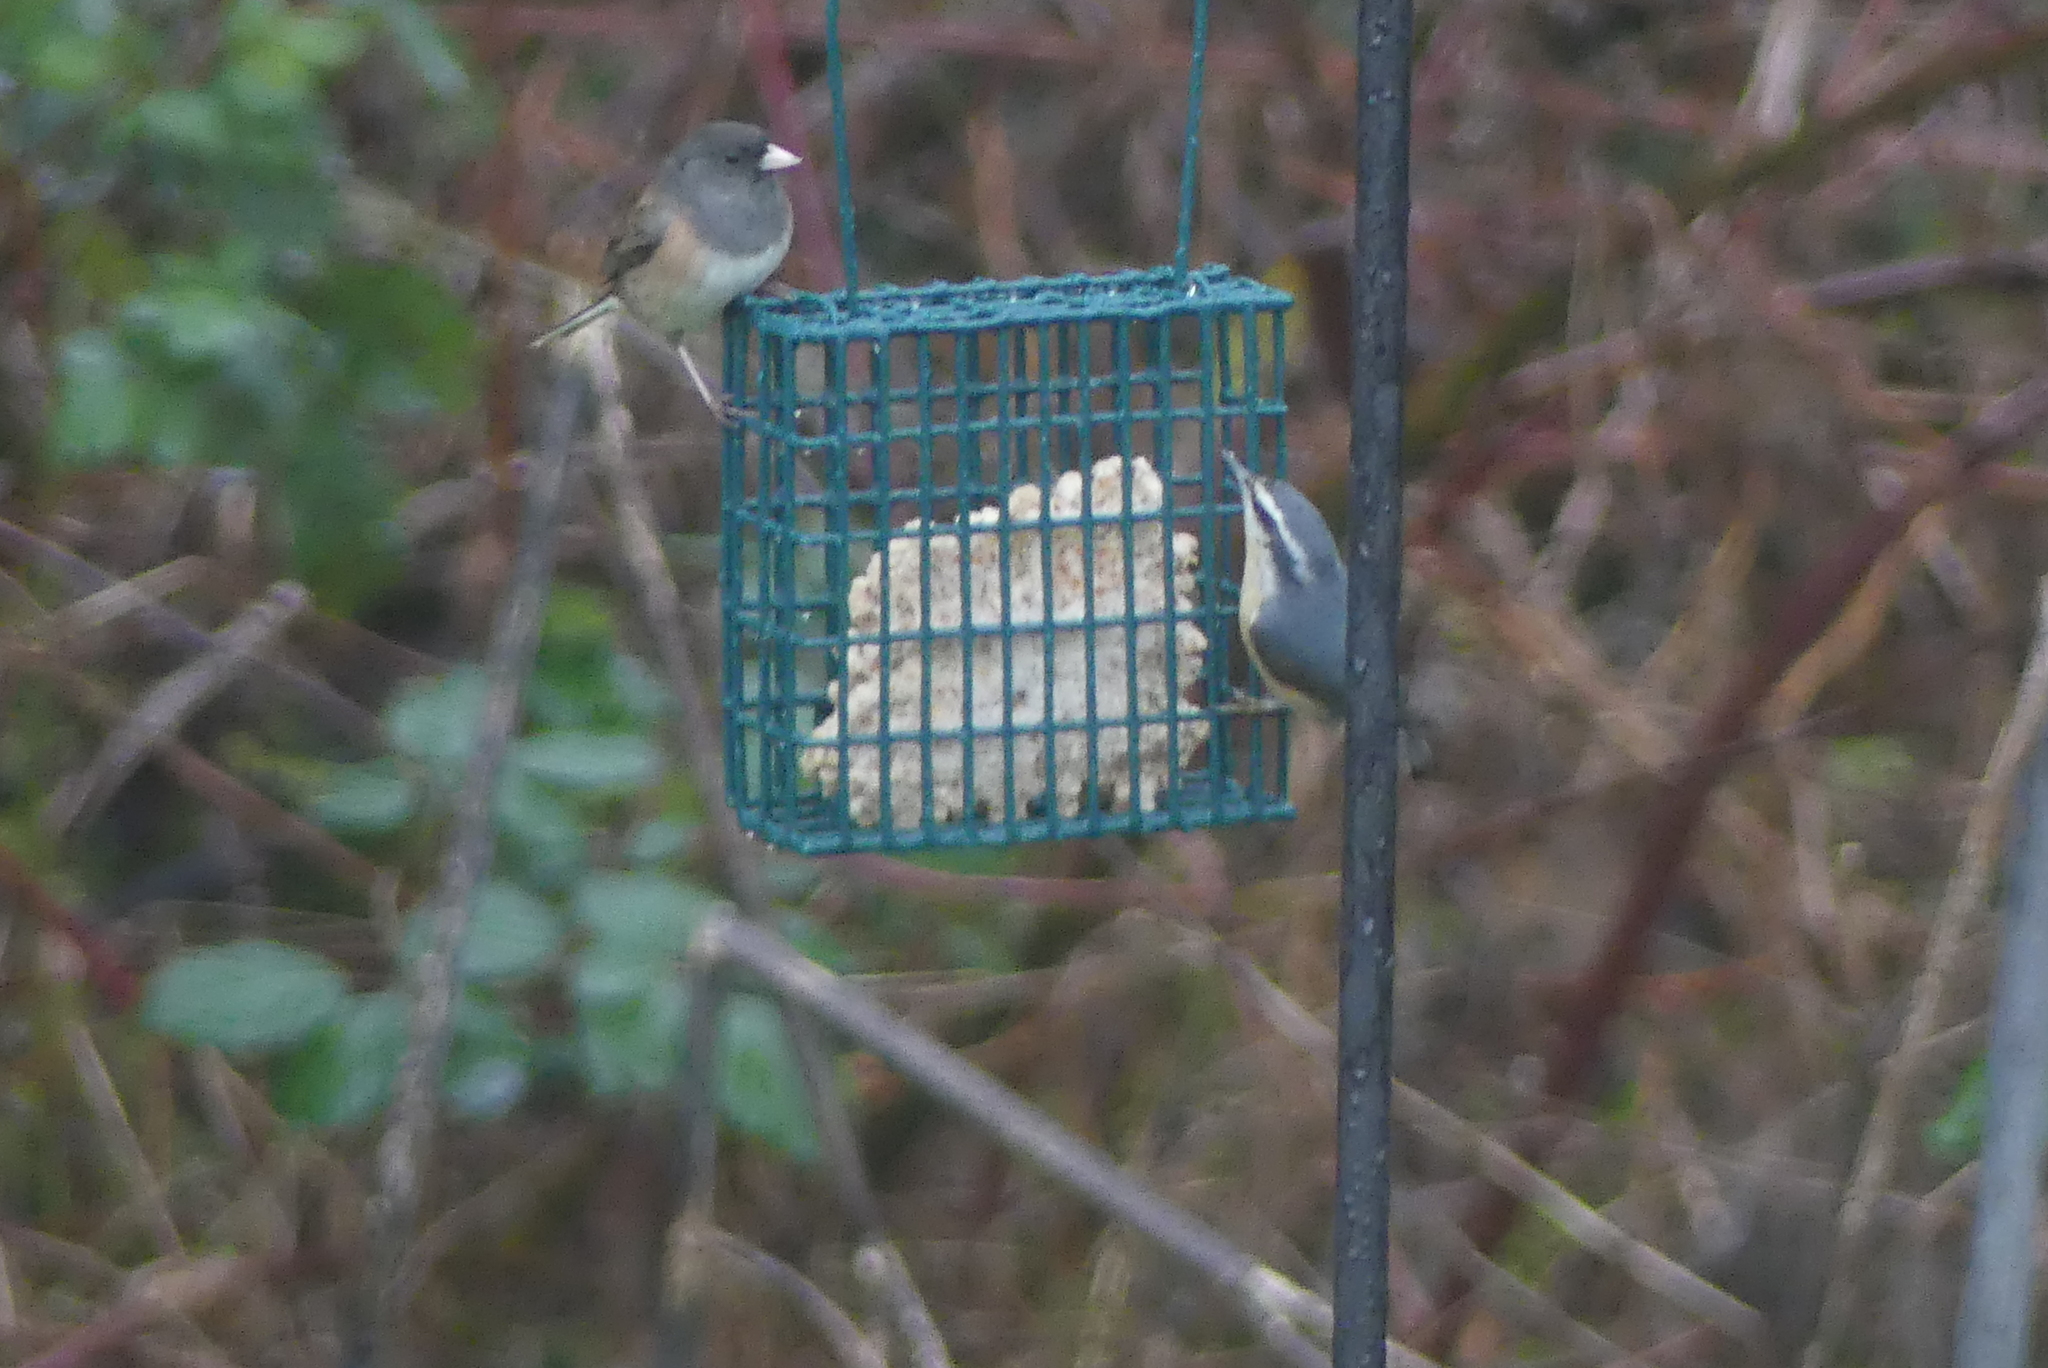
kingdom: Animalia
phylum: Chordata
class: Aves
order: Passeriformes
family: Sittidae
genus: Sitta
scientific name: Sitta canadensis
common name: Red-breasted nuthatch
